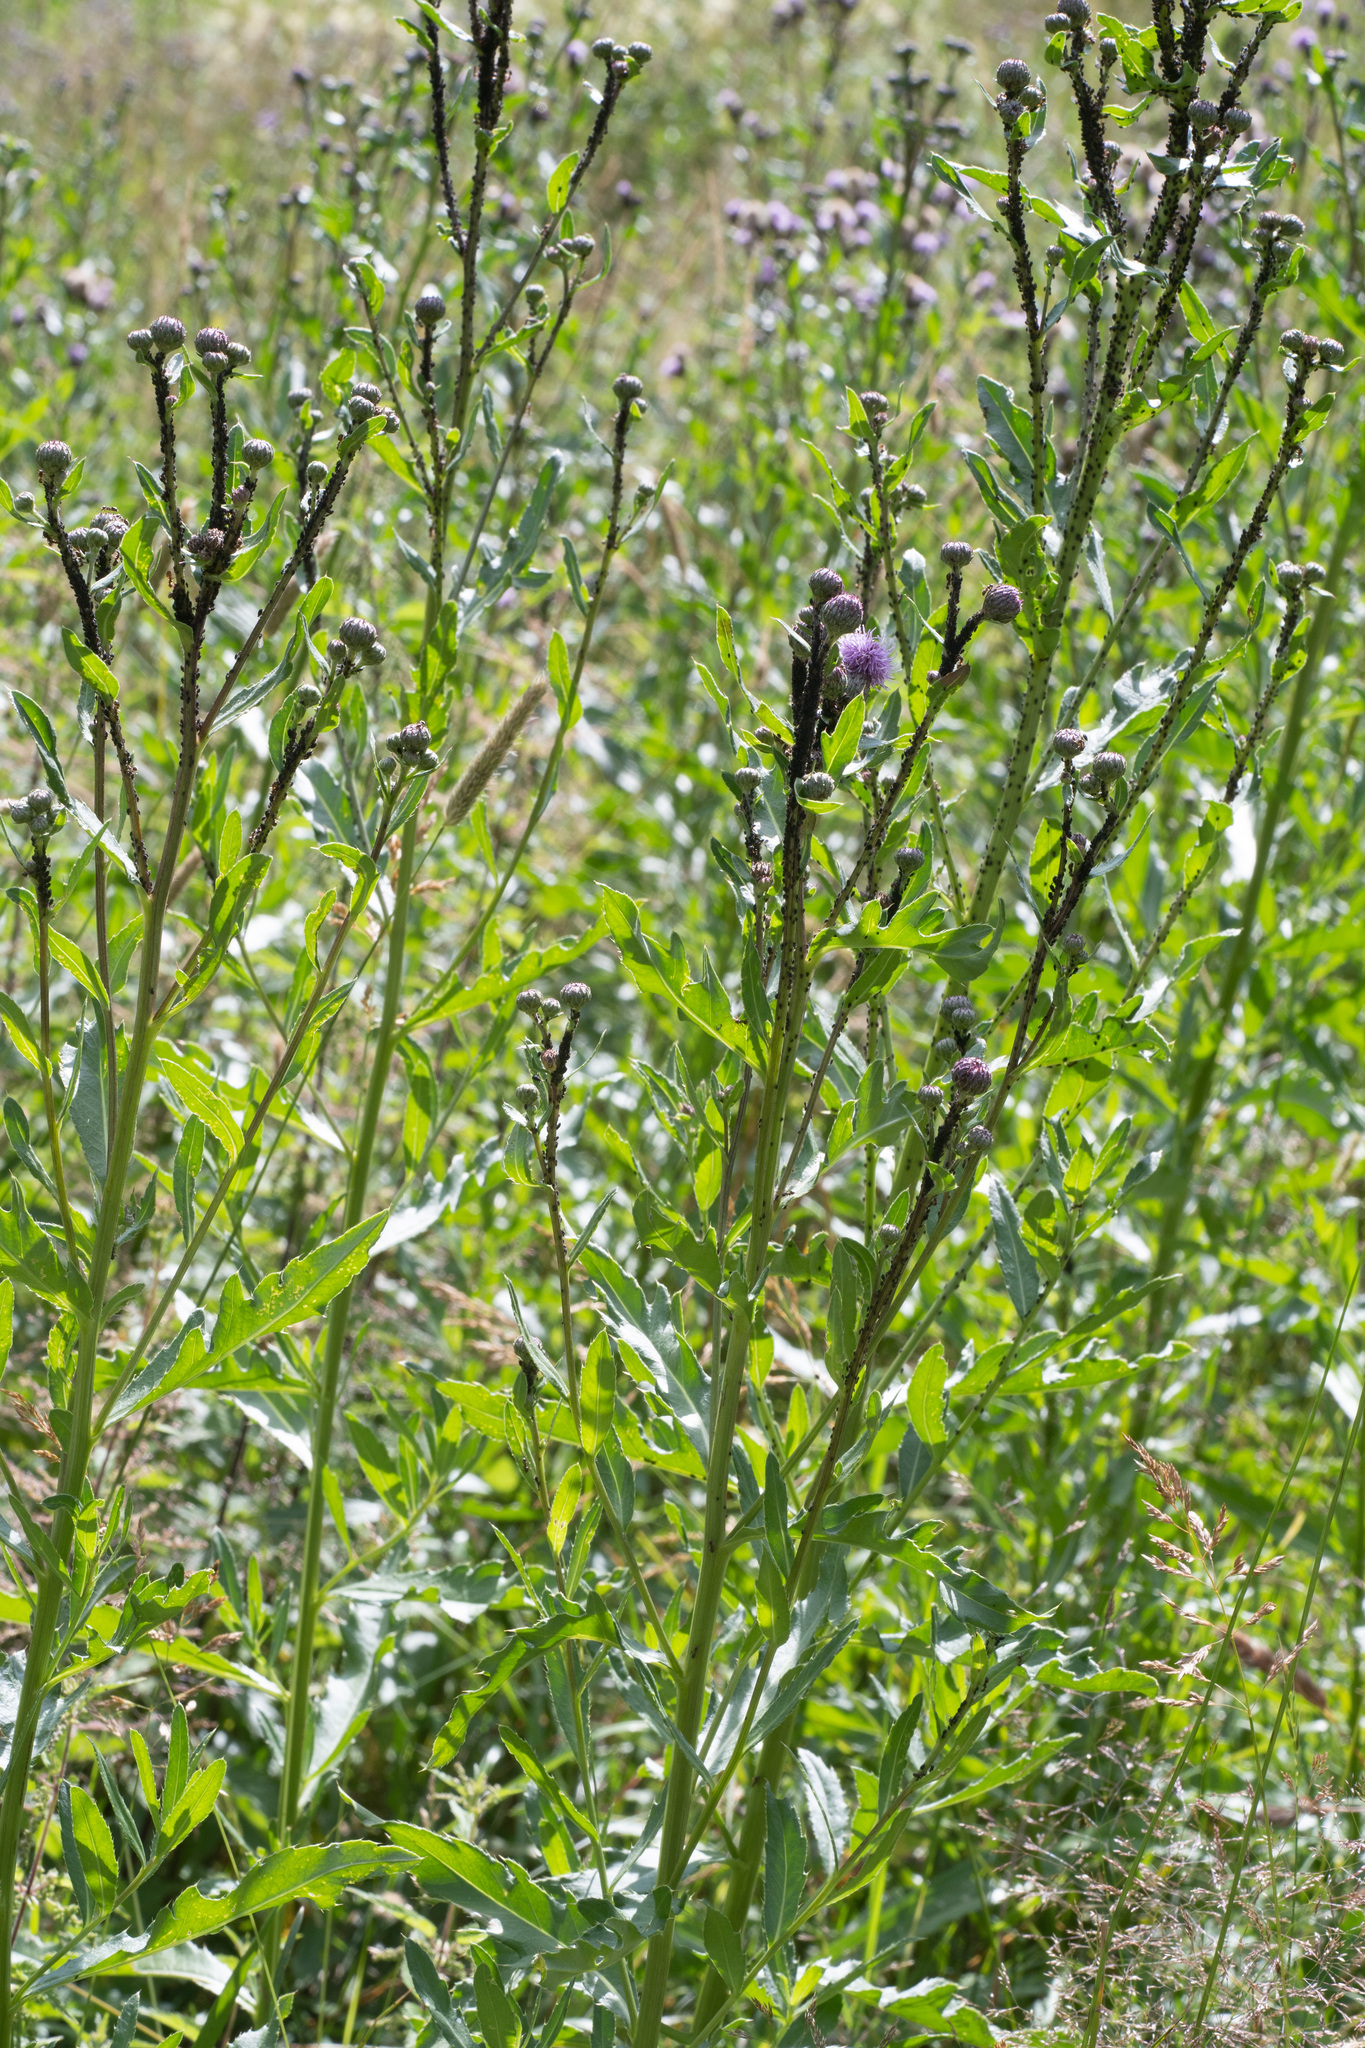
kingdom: Plantae
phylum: Tracheophyta
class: Magnoliopsida
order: Asterales
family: Asteraceae
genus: Cirsium
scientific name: Cirsium arvense
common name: Creeping thistle
